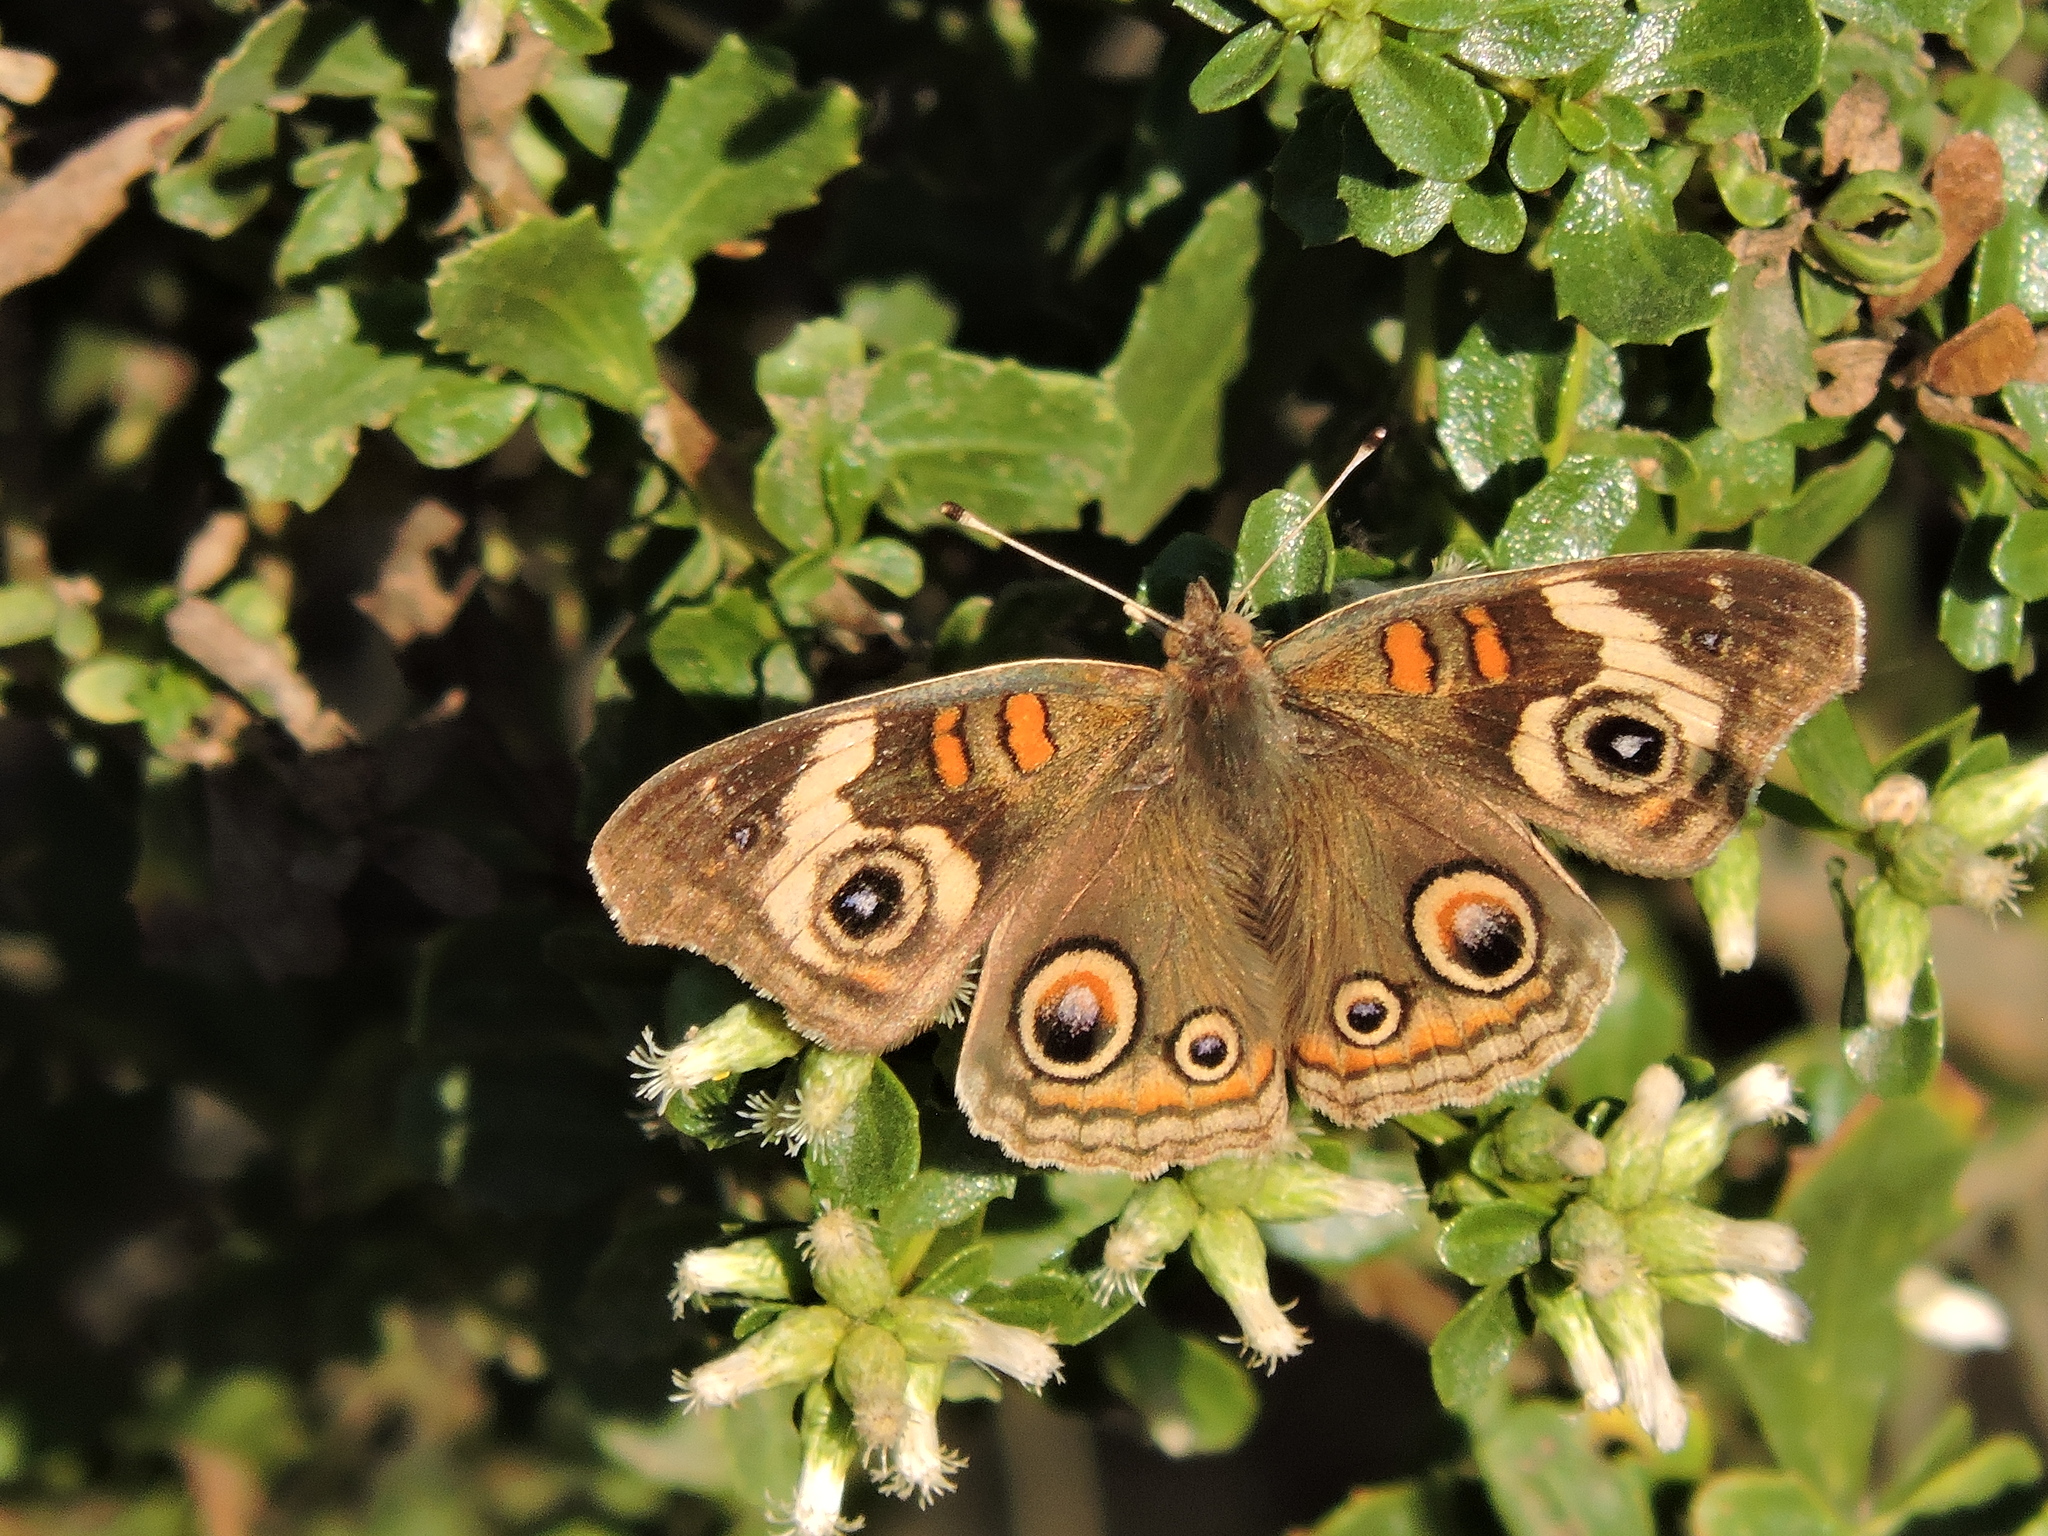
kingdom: Animalia
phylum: Arthropoda
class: Insecta
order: Lepidoptera
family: Nymphalidae
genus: Junonia
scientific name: Junonia grisea
